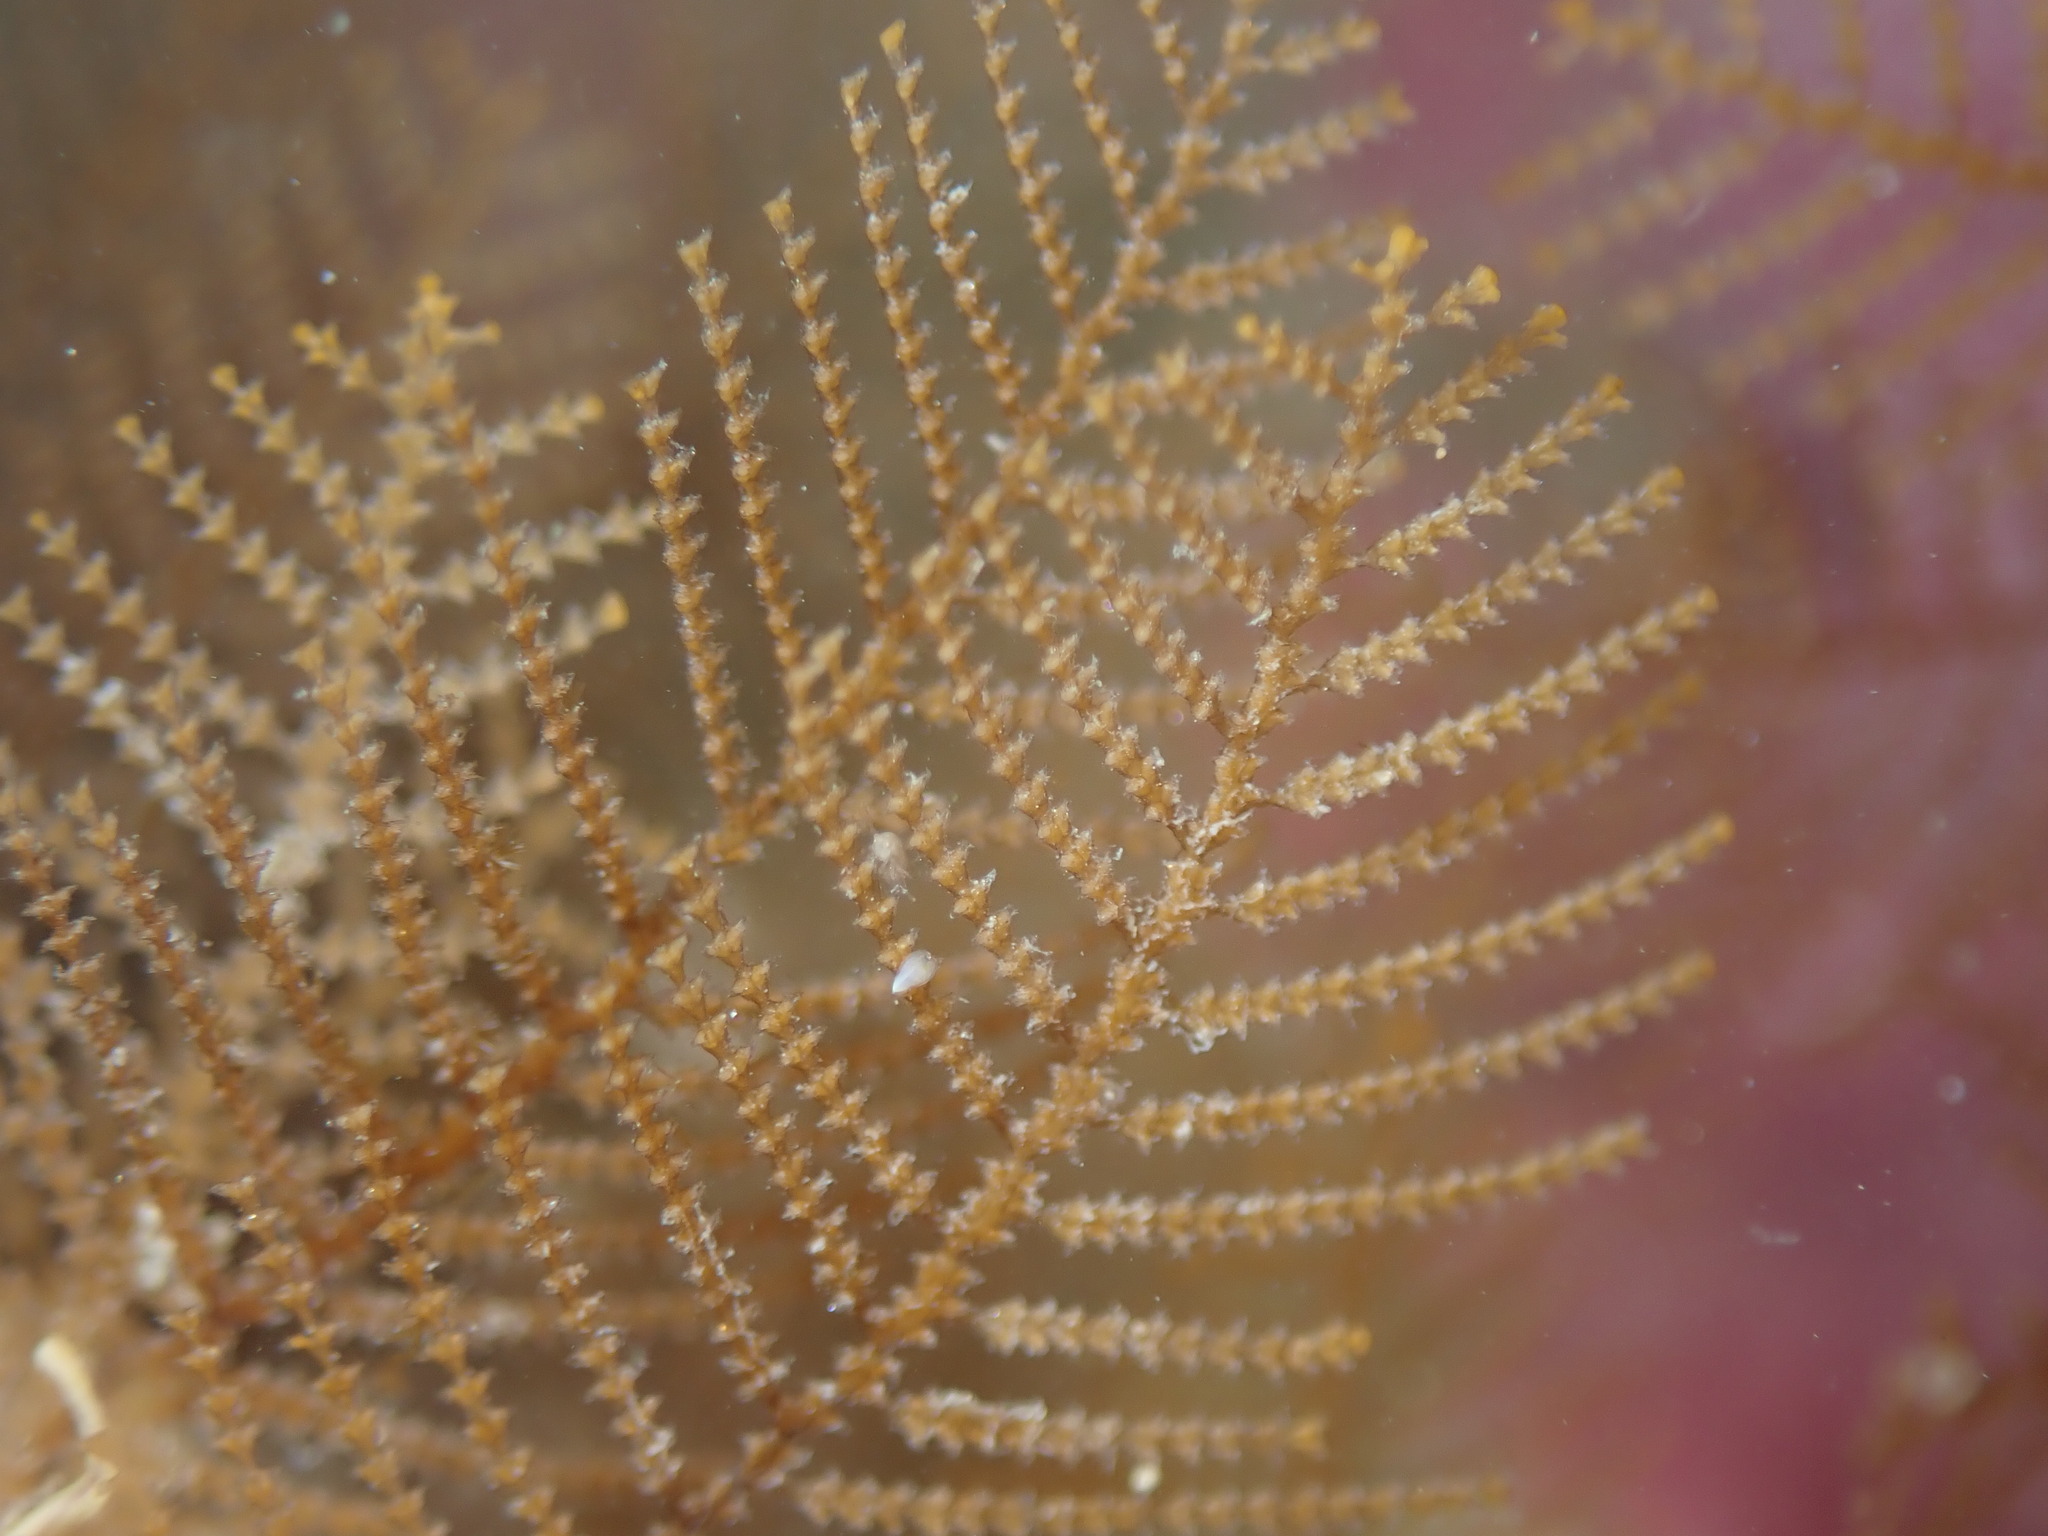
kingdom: Animalia
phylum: Cnidaria
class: Hydrozoa
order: Leptothecata
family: Sertulariidae
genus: Sertularia
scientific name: Sertularia unguiculata
